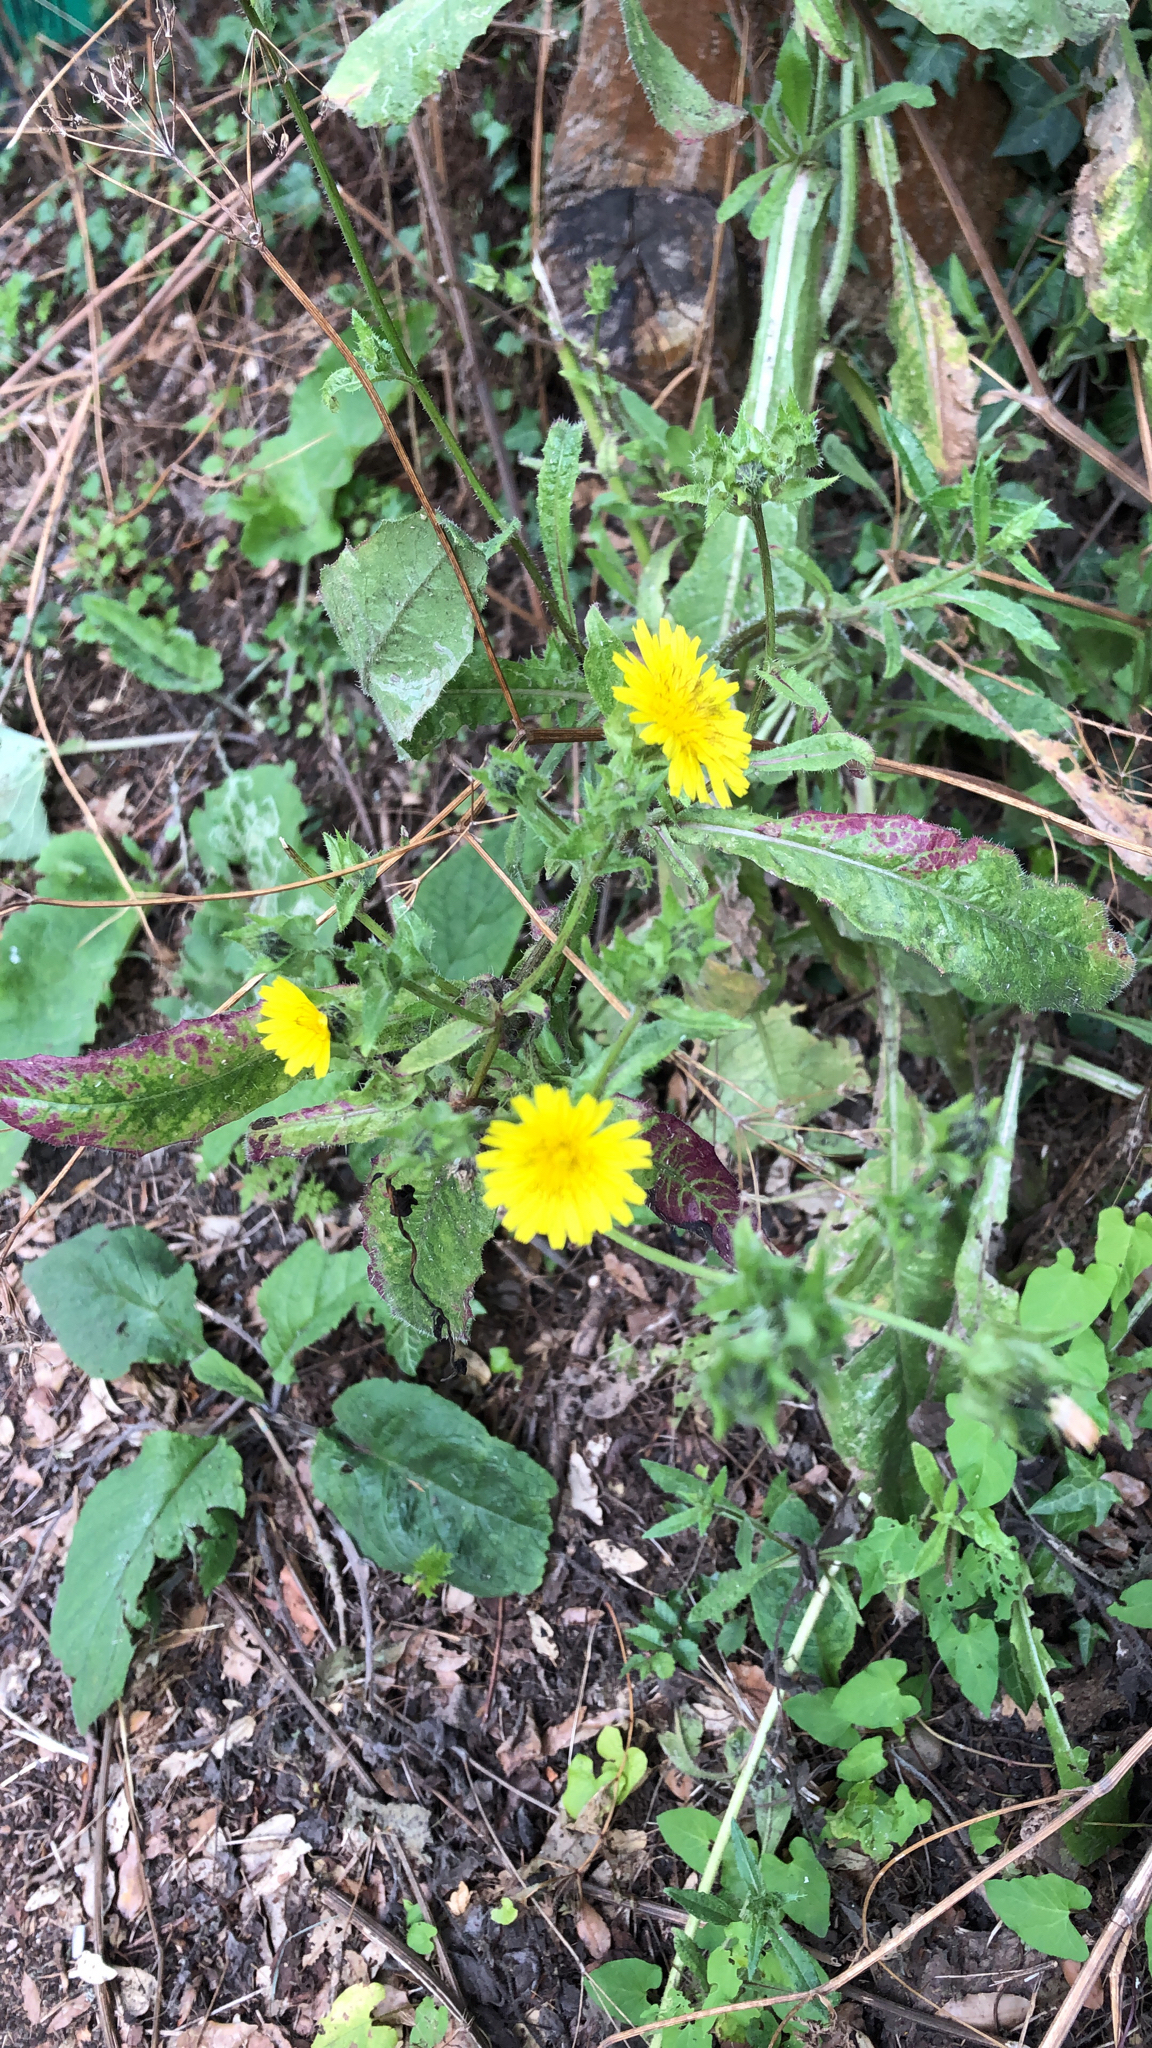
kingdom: Plantae
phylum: Tracheophyta
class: Magnoliopsida
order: Asterales
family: Asteraceae
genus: Helminthotheca
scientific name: Helminthotheca echioides
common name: Ox-tongue
